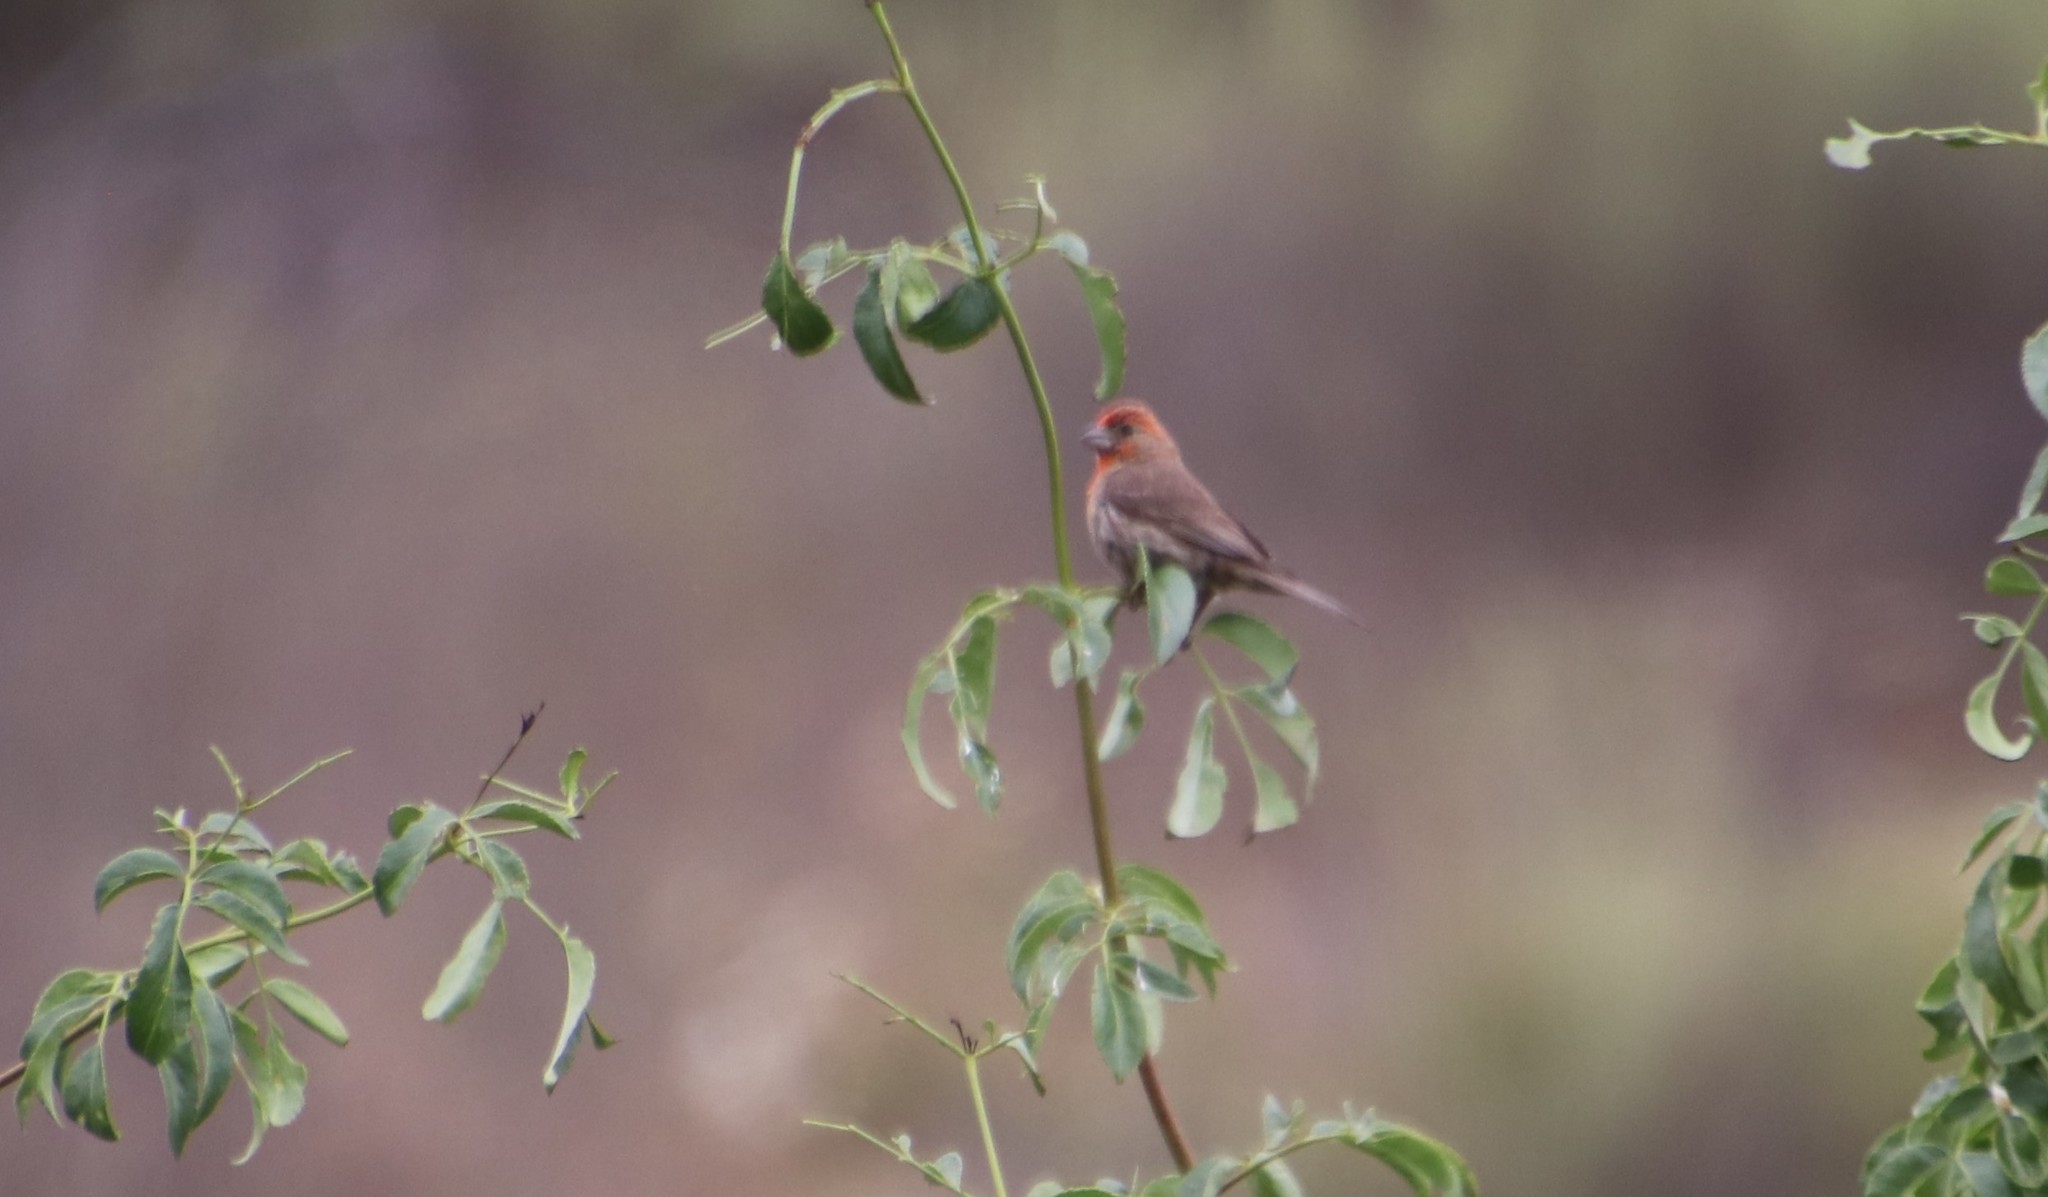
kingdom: Animalia
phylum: Chordata
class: Aves
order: Passeriformes
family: Fringillidae
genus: Haemorhous
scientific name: Haemorhous mexicanus
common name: House finch
